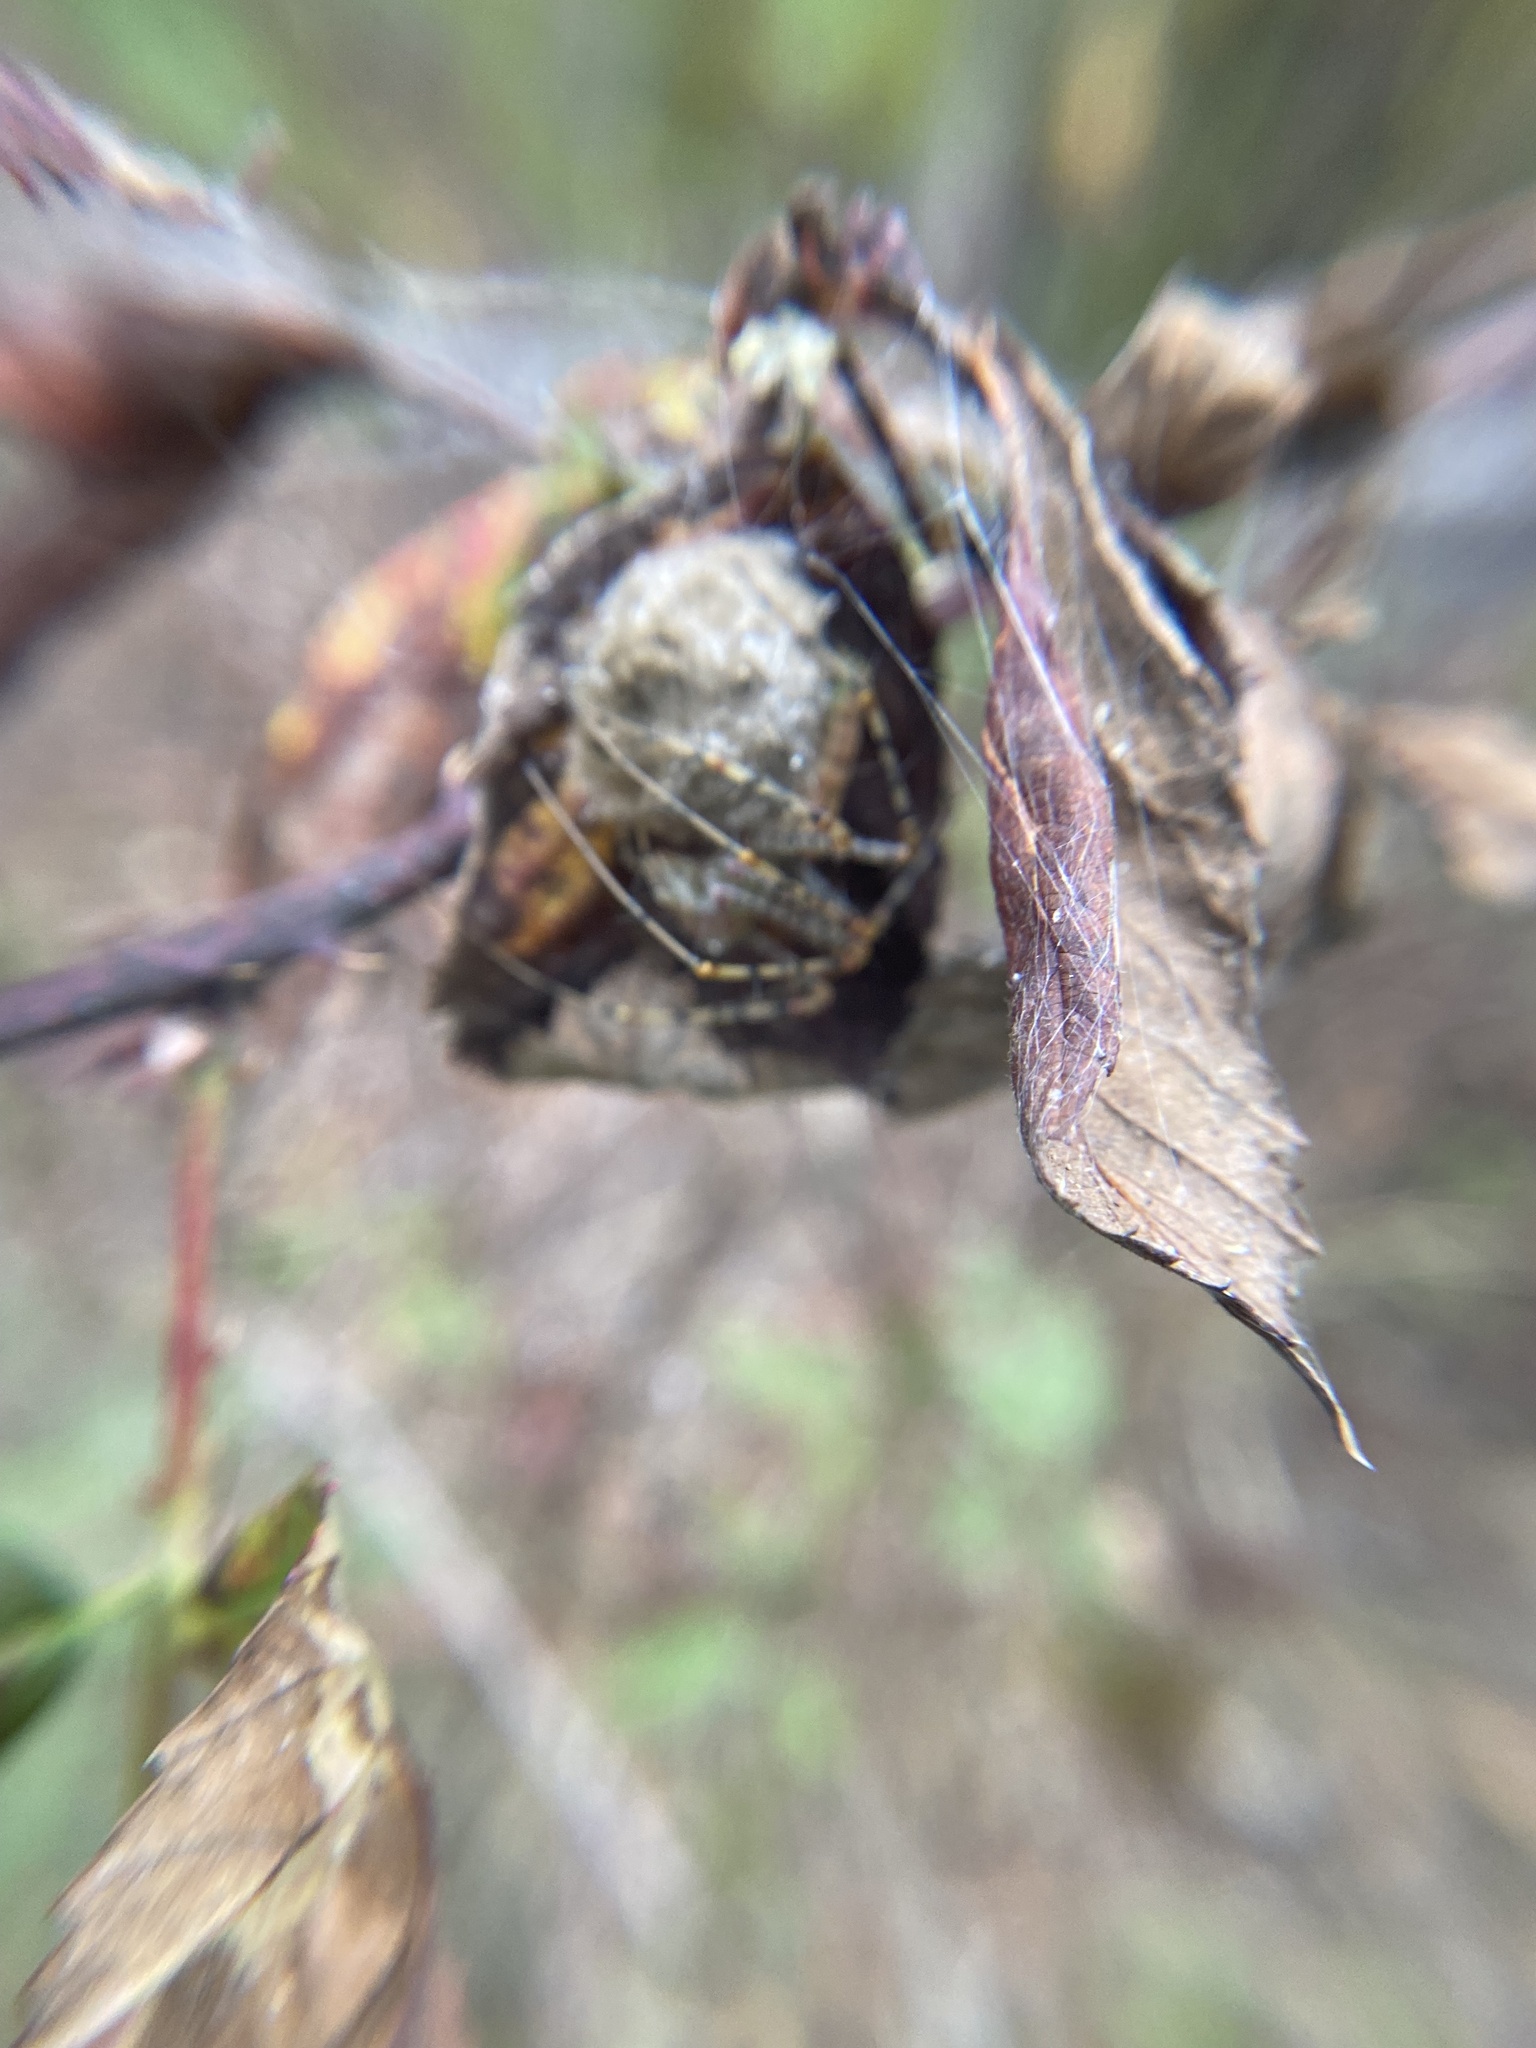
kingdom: Animalia
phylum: Arthropoda
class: Arachnida
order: Araneae
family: Oxyopidae
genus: Peucetia
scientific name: Peucetia viridans
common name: Lynx spiders
